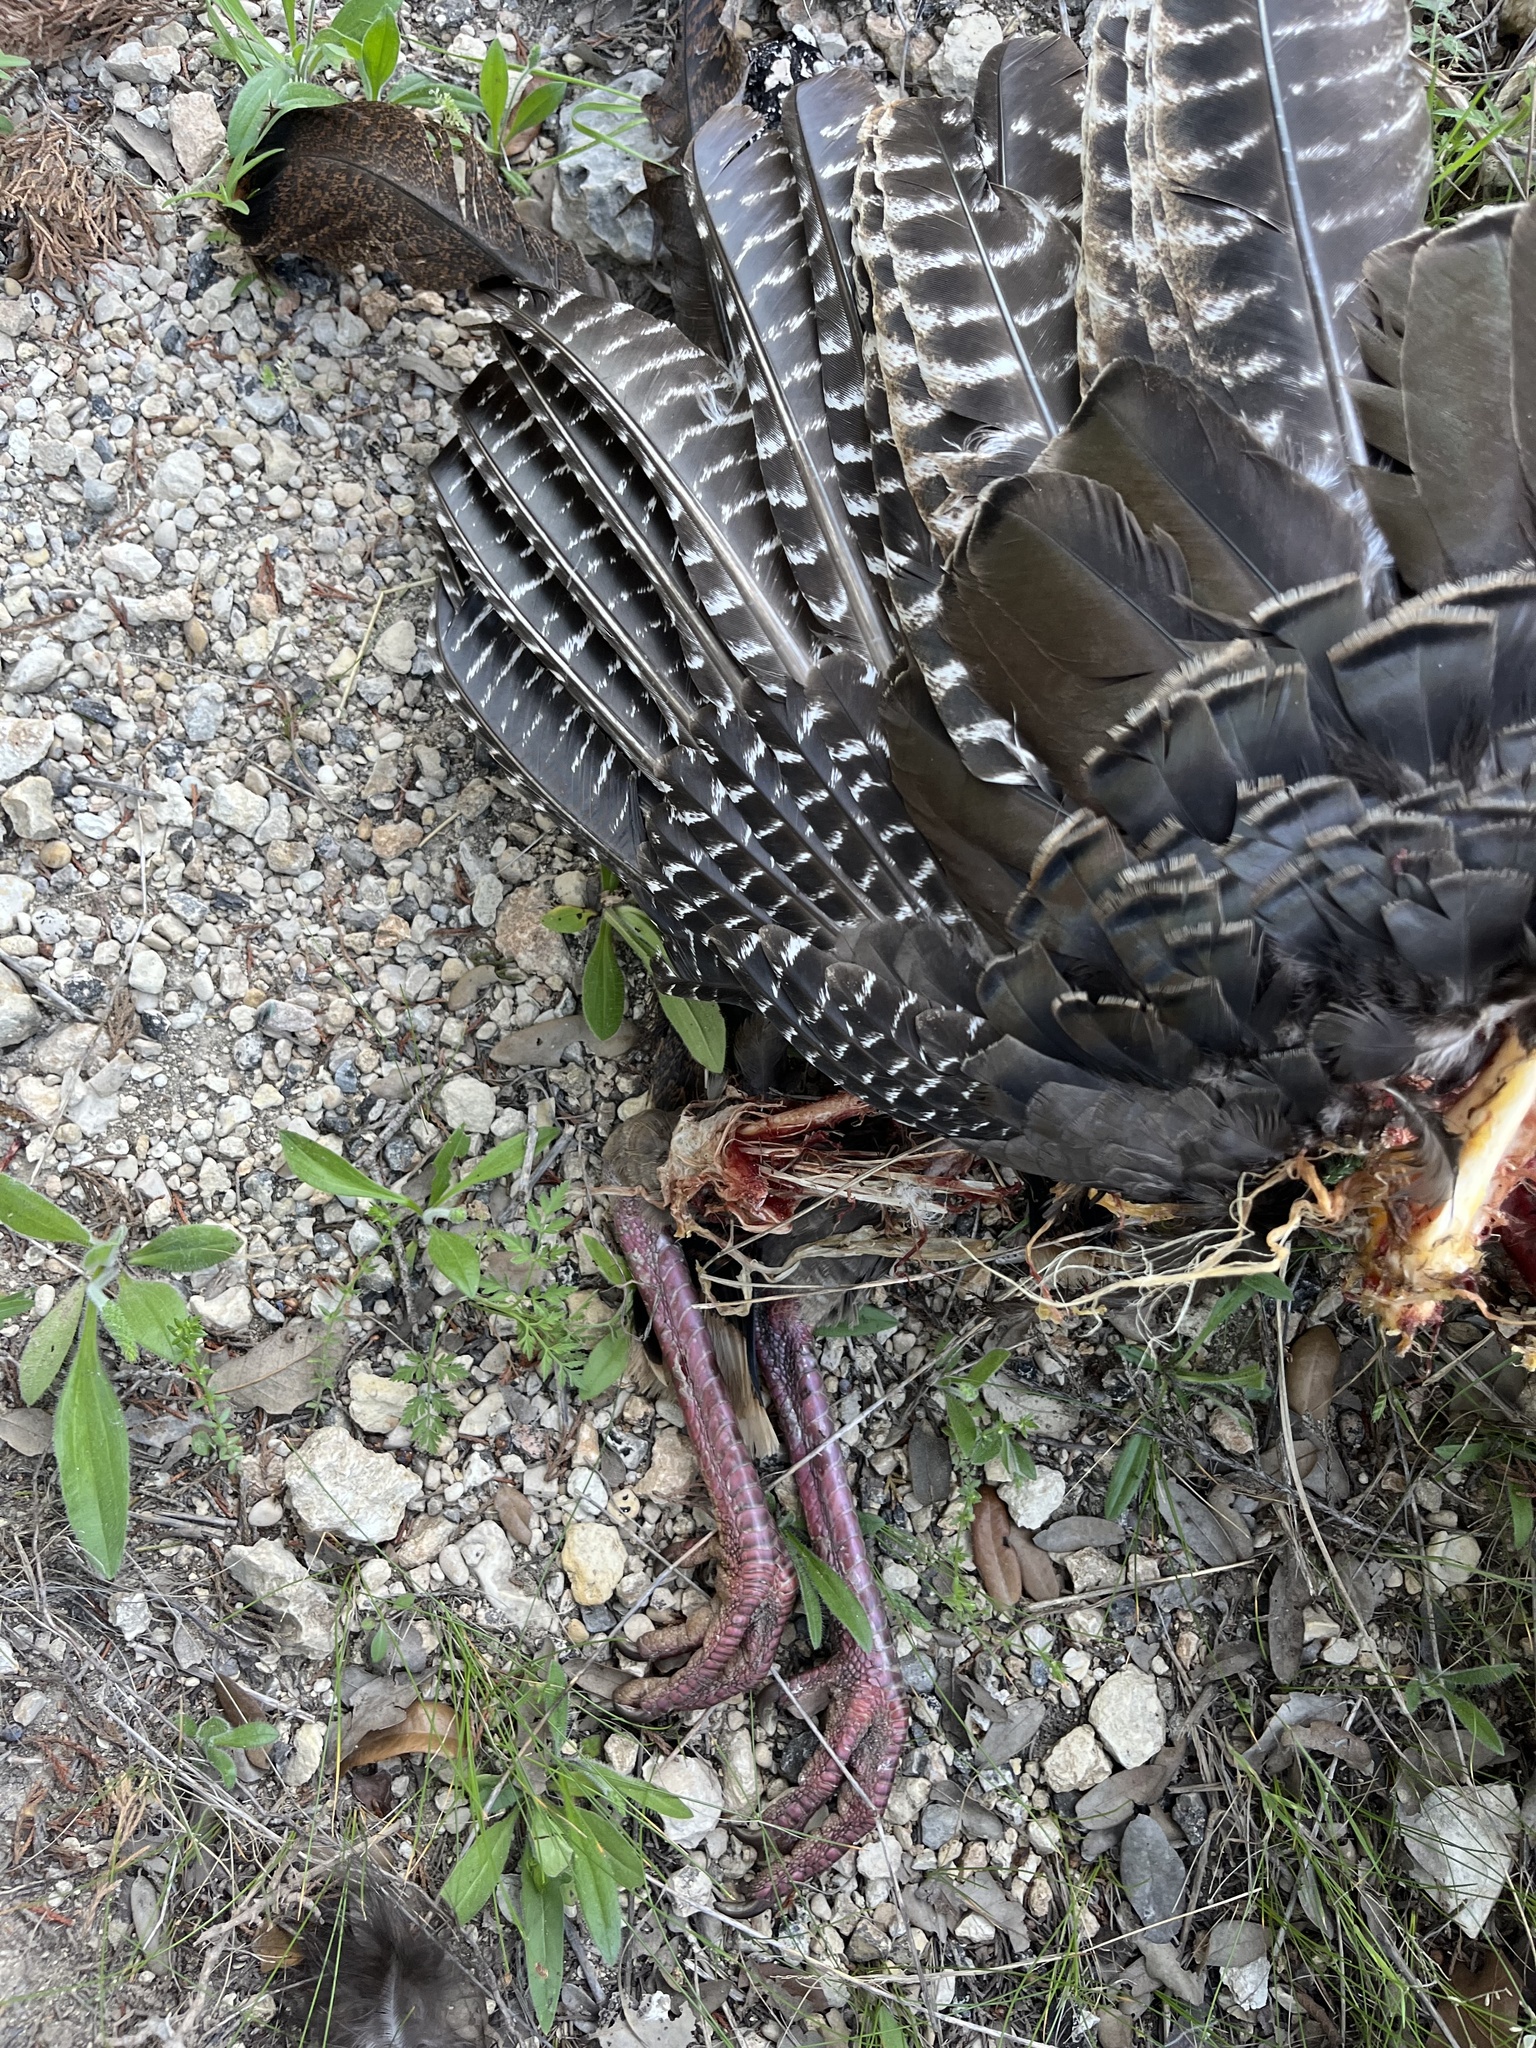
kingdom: Animalia
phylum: Chordata
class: Aves
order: Galliformes
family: Phasianidae
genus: Meleagris
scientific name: Meleagris gallopavo
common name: Wild turkey
